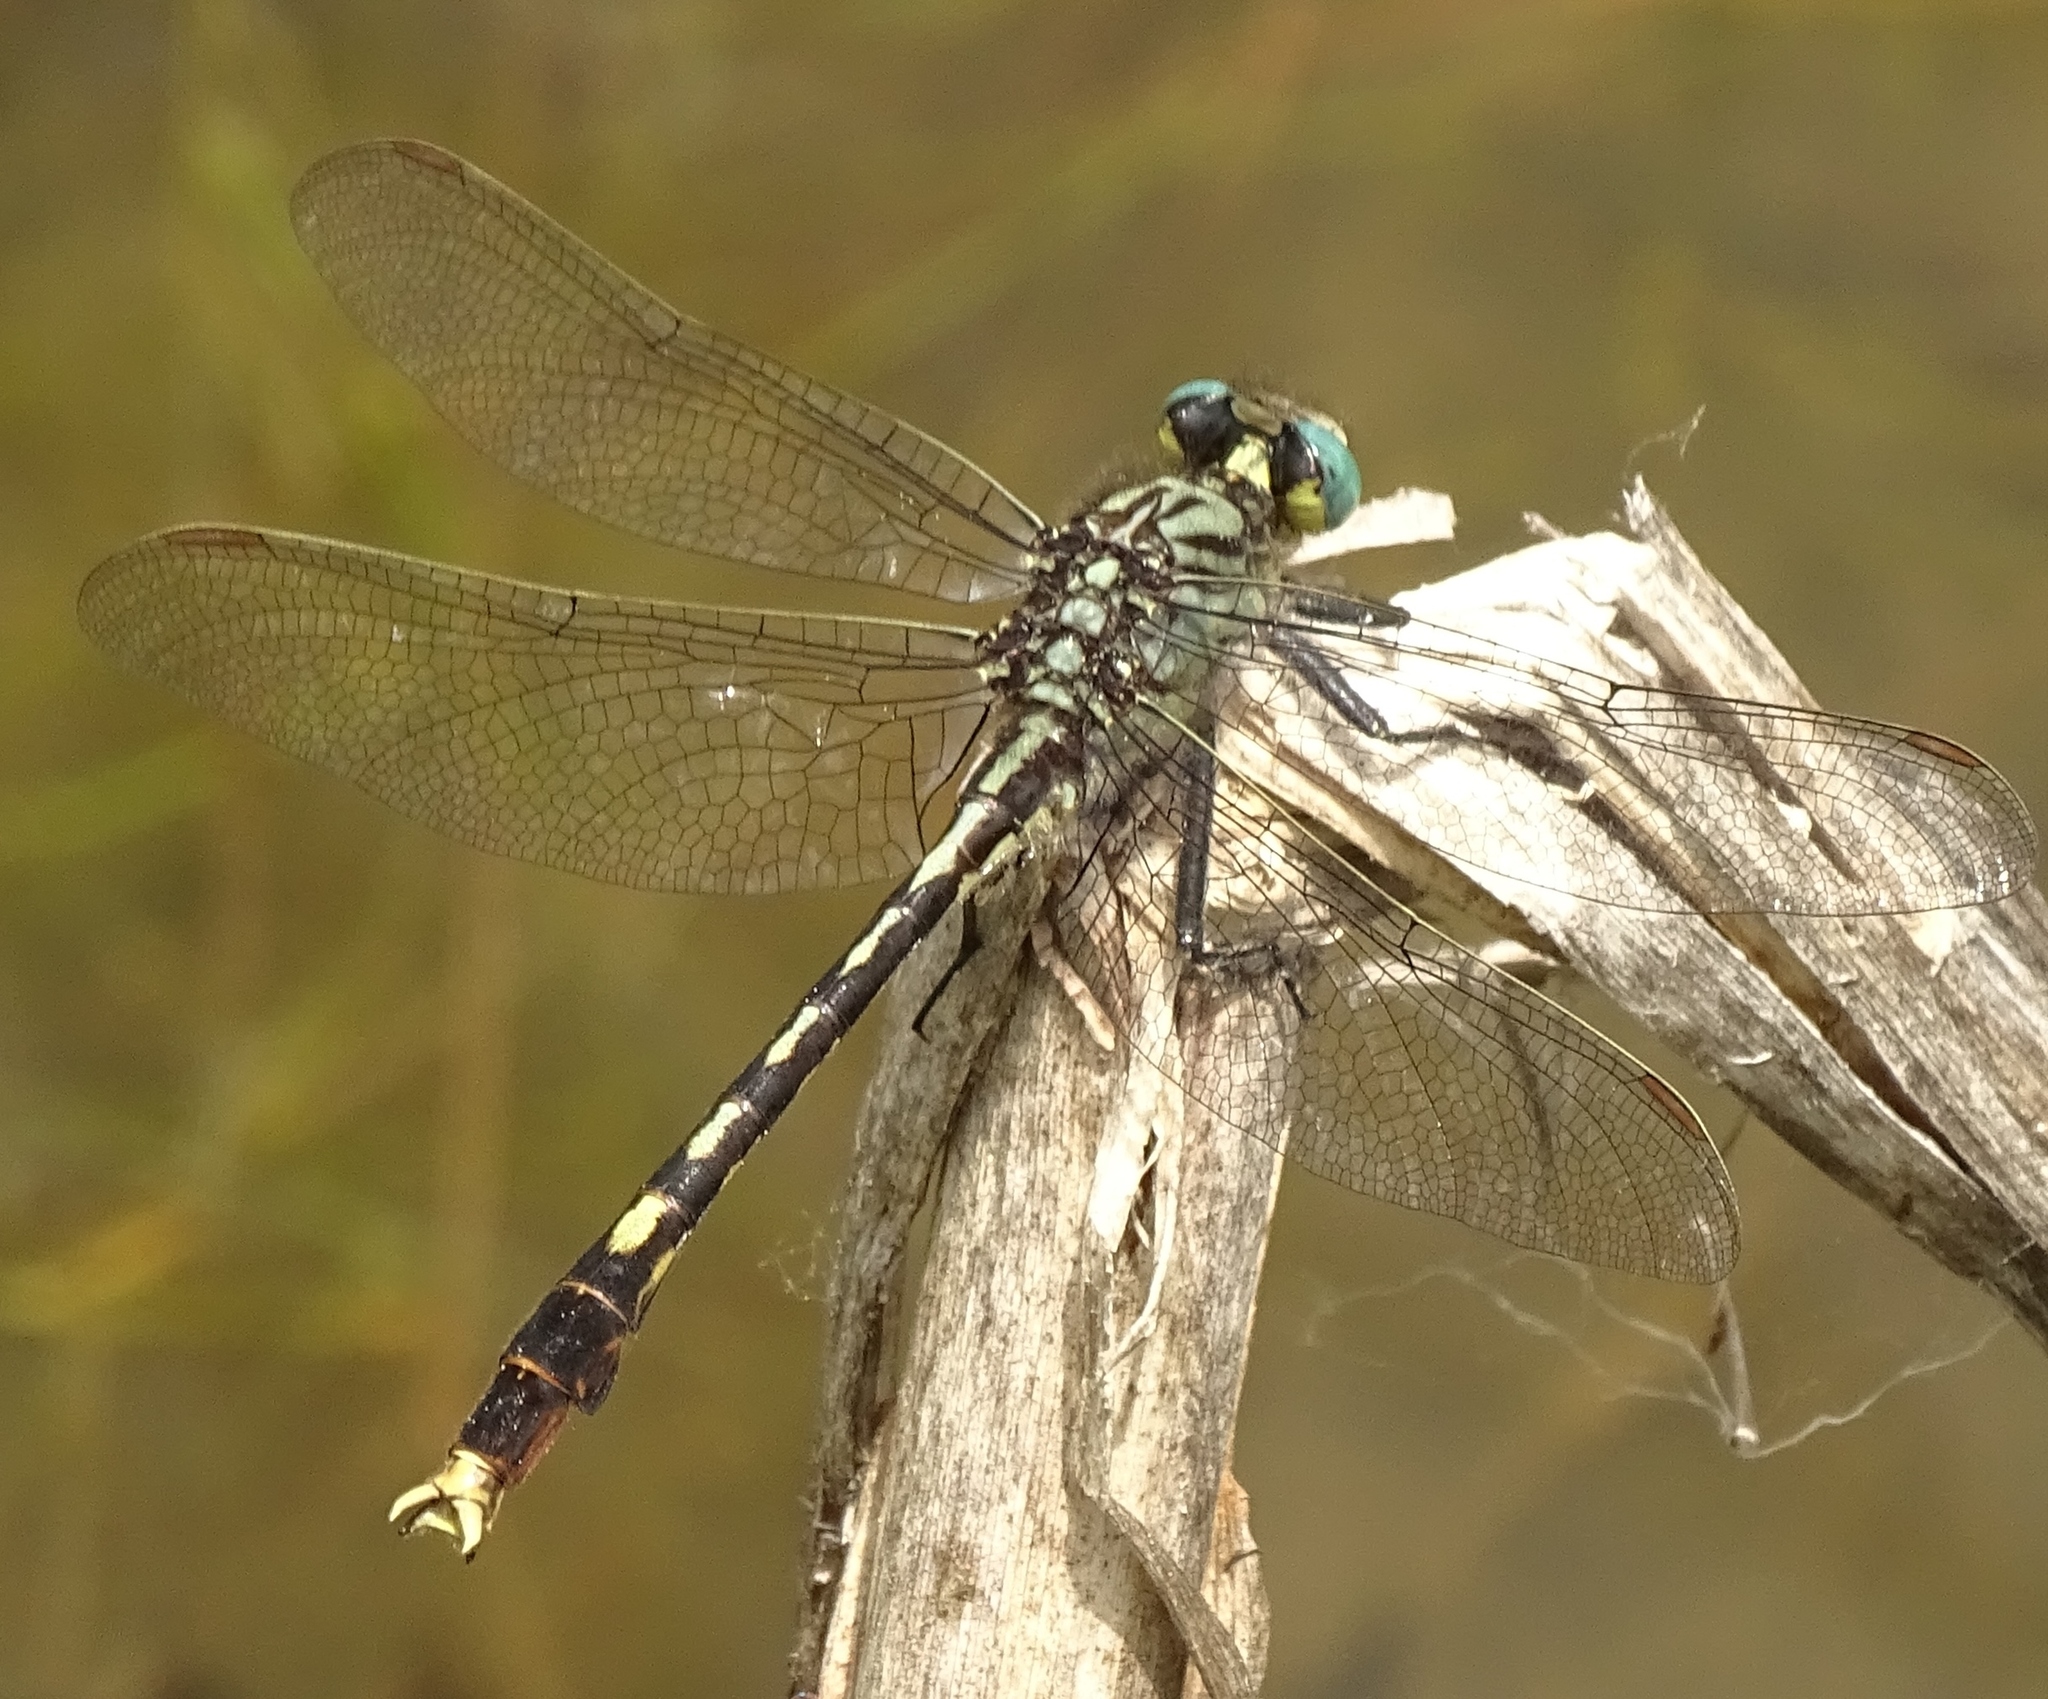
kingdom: Animalia
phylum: Arthropoda
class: Insecta
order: Odonata
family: Gomphidae
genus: Arigomphus
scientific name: Arigomphus villosipes
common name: Unicorn clubtail
